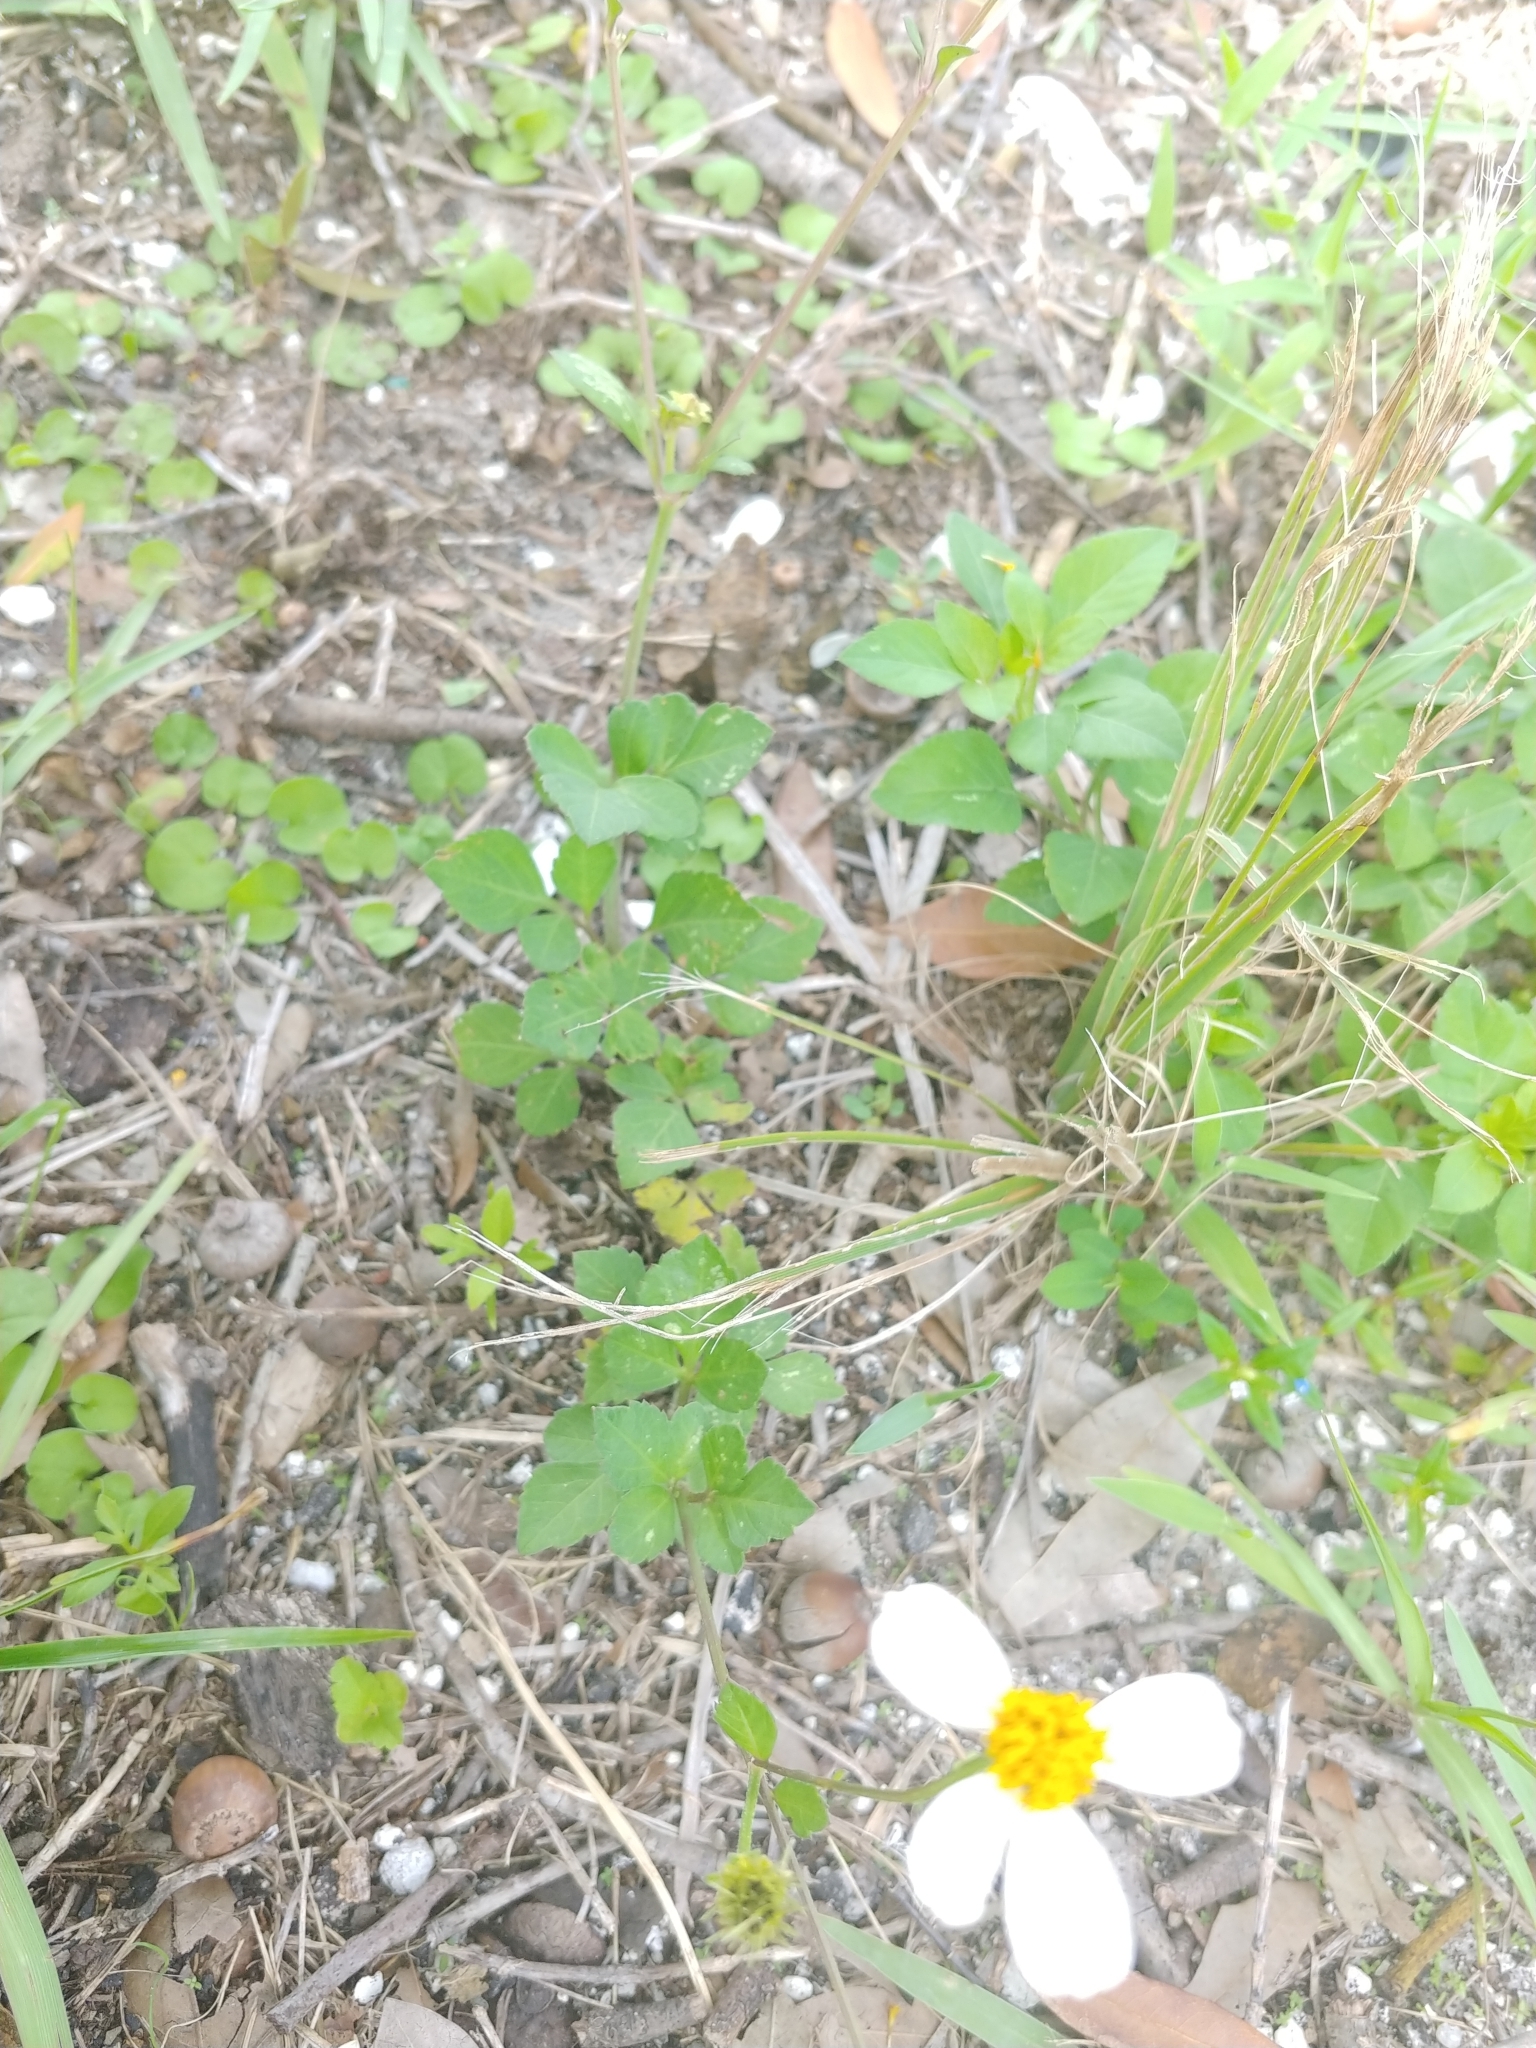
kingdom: Plantae
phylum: Tracheophyta
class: Magnoliopsida
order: Asterales
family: Asteraceae
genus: Bidens
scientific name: Bidens alba
